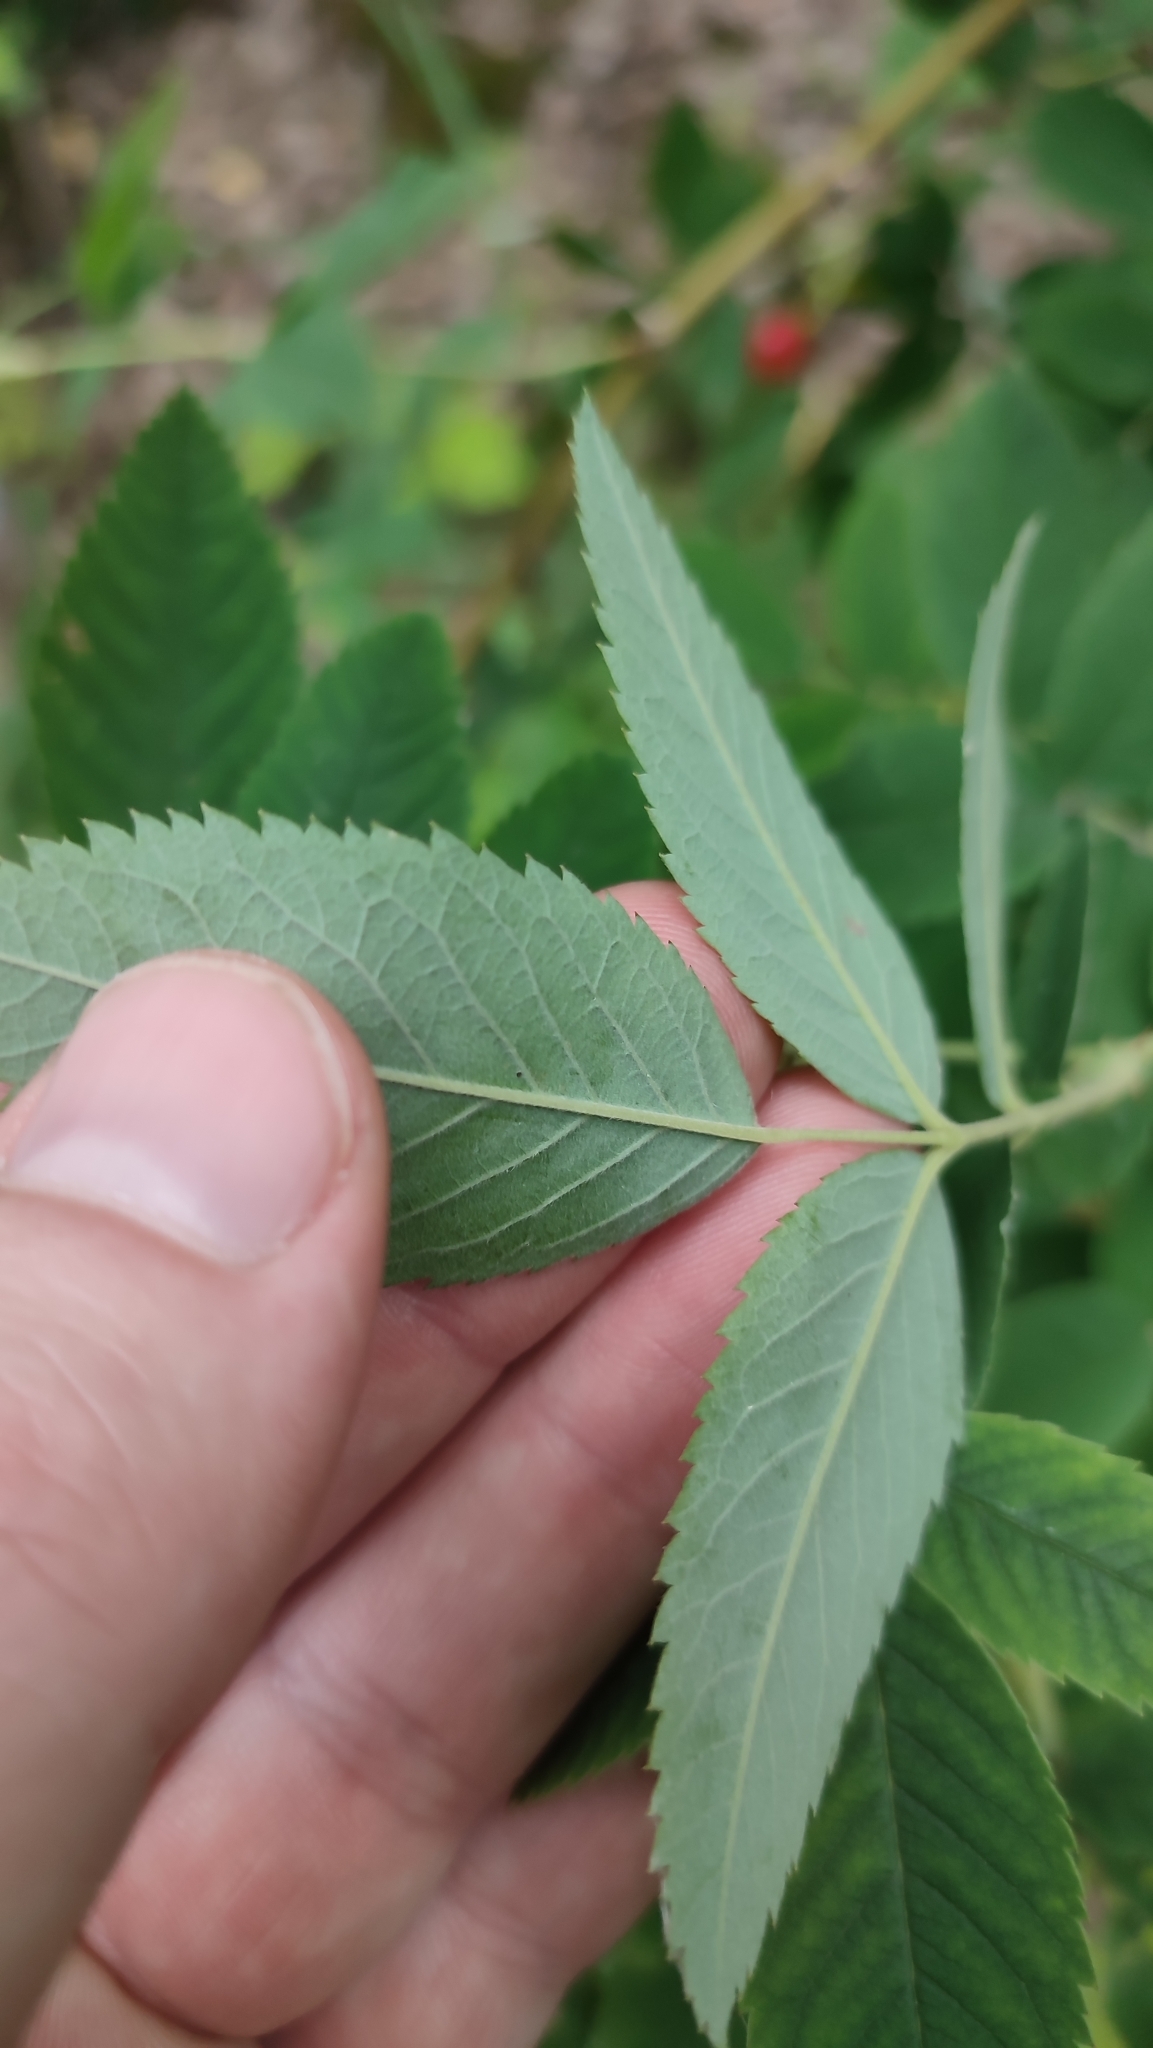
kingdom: Plantae
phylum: Tracheophyta
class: Magnoliopsida
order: Rosales
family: Rosaceae
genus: Rosa
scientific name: Rosa majalis
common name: Cinnamon rose
